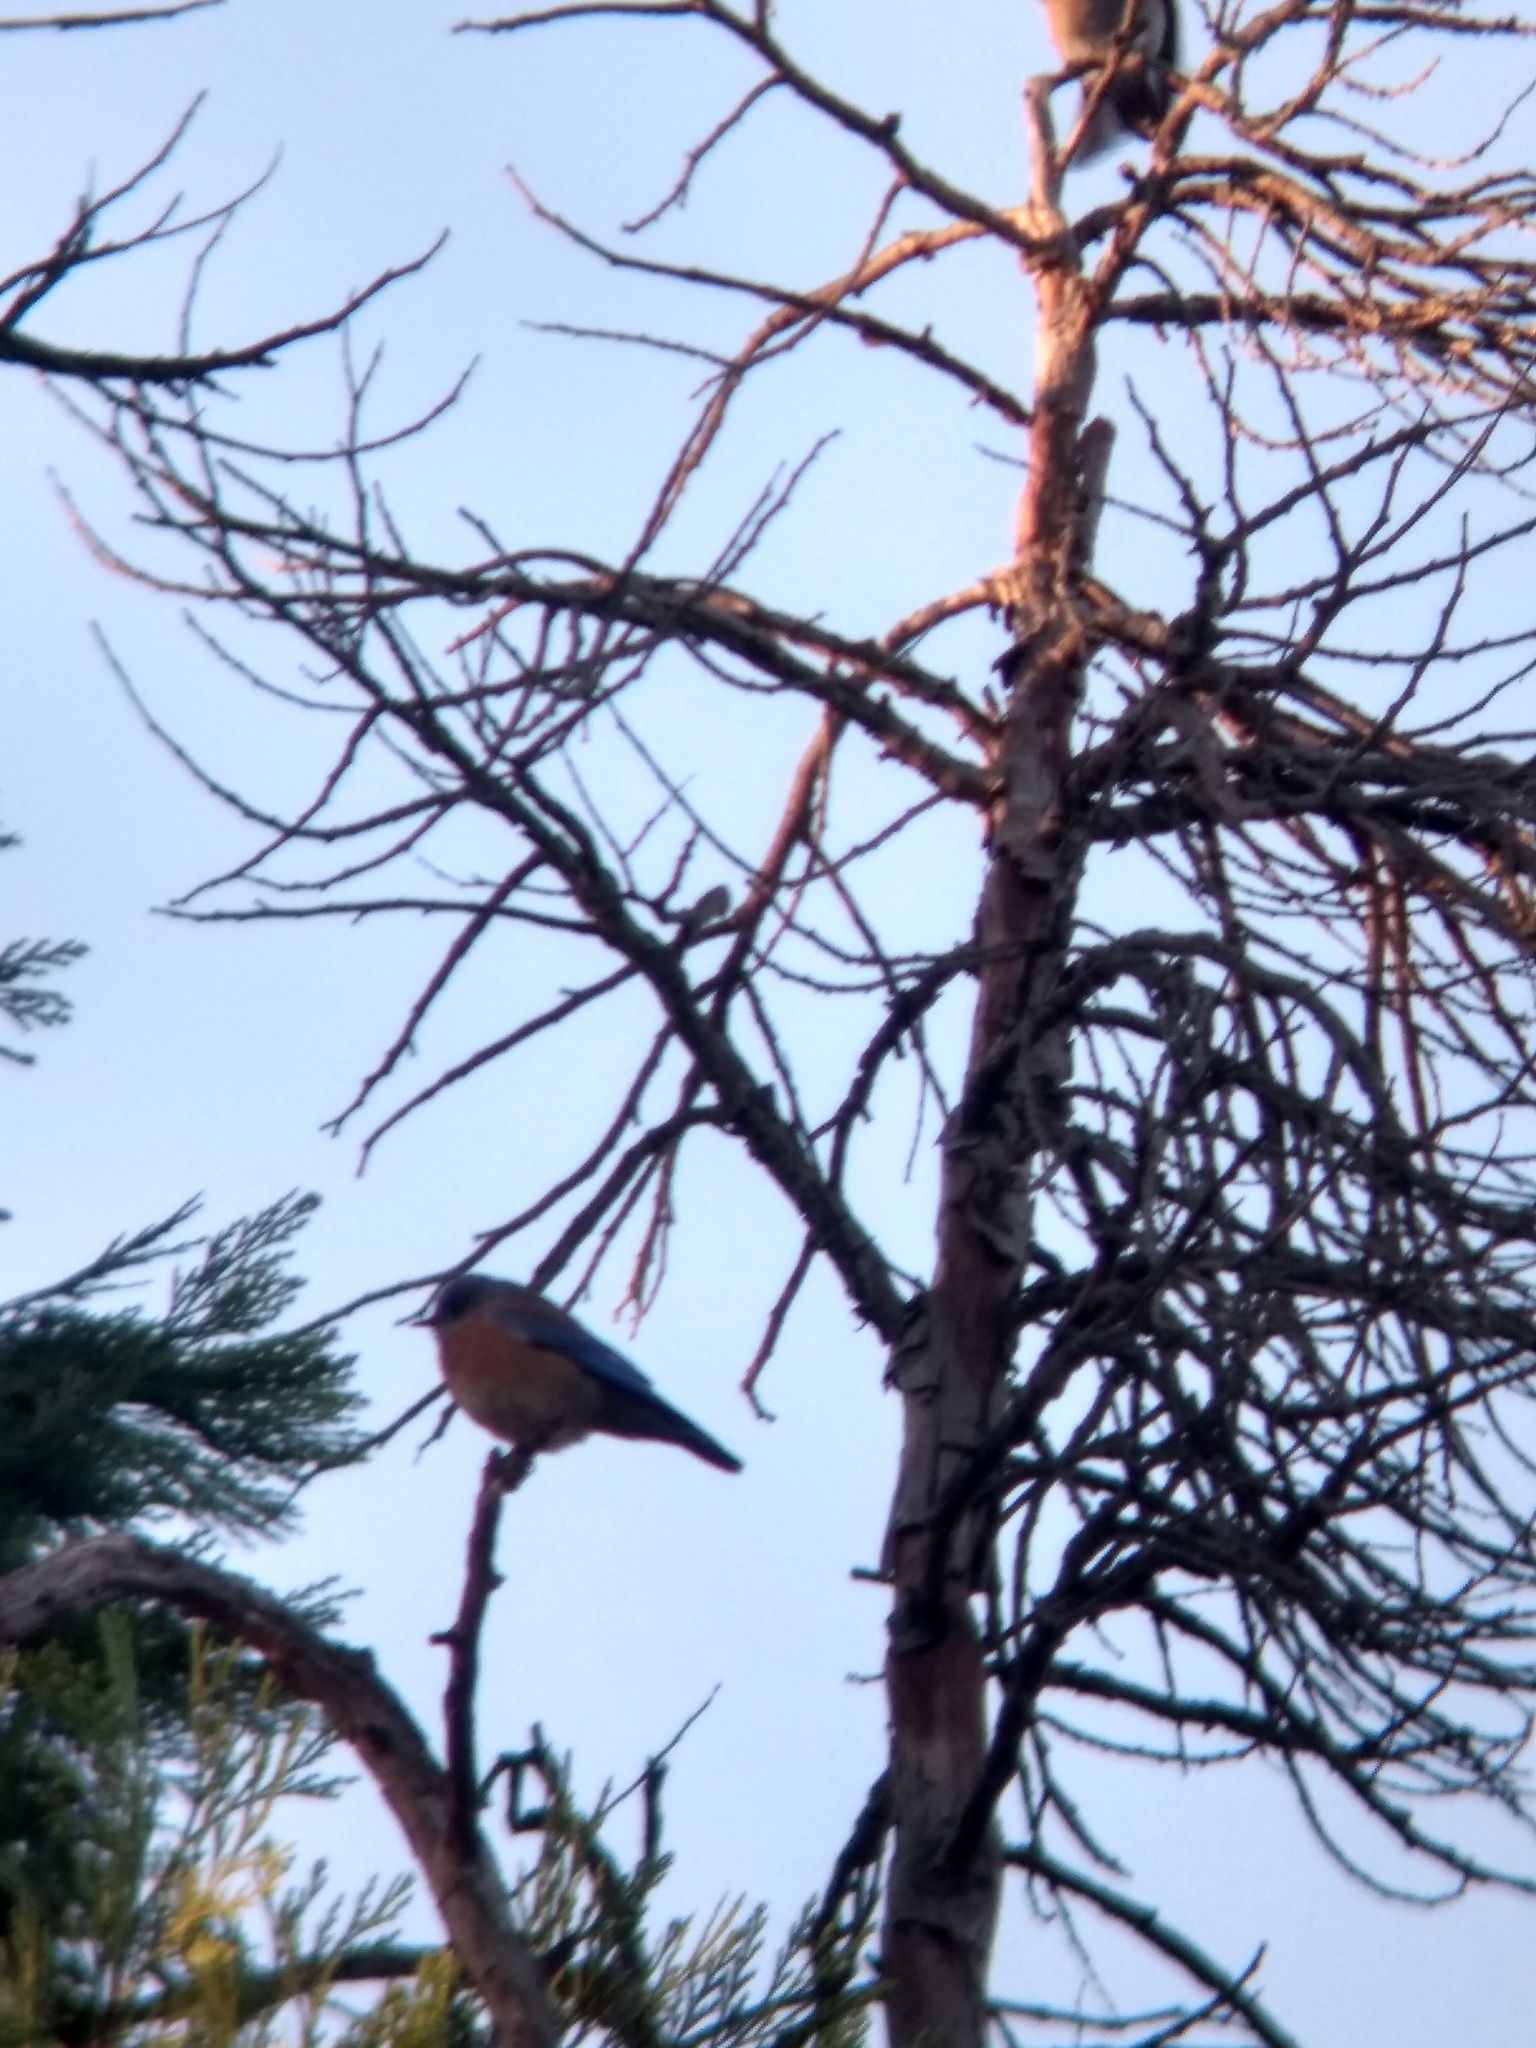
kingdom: Animalia
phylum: Chordata
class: Aves
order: Passeriformes
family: Turdidae
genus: Sialia
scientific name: Sialia mexicana
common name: Western bluebird
